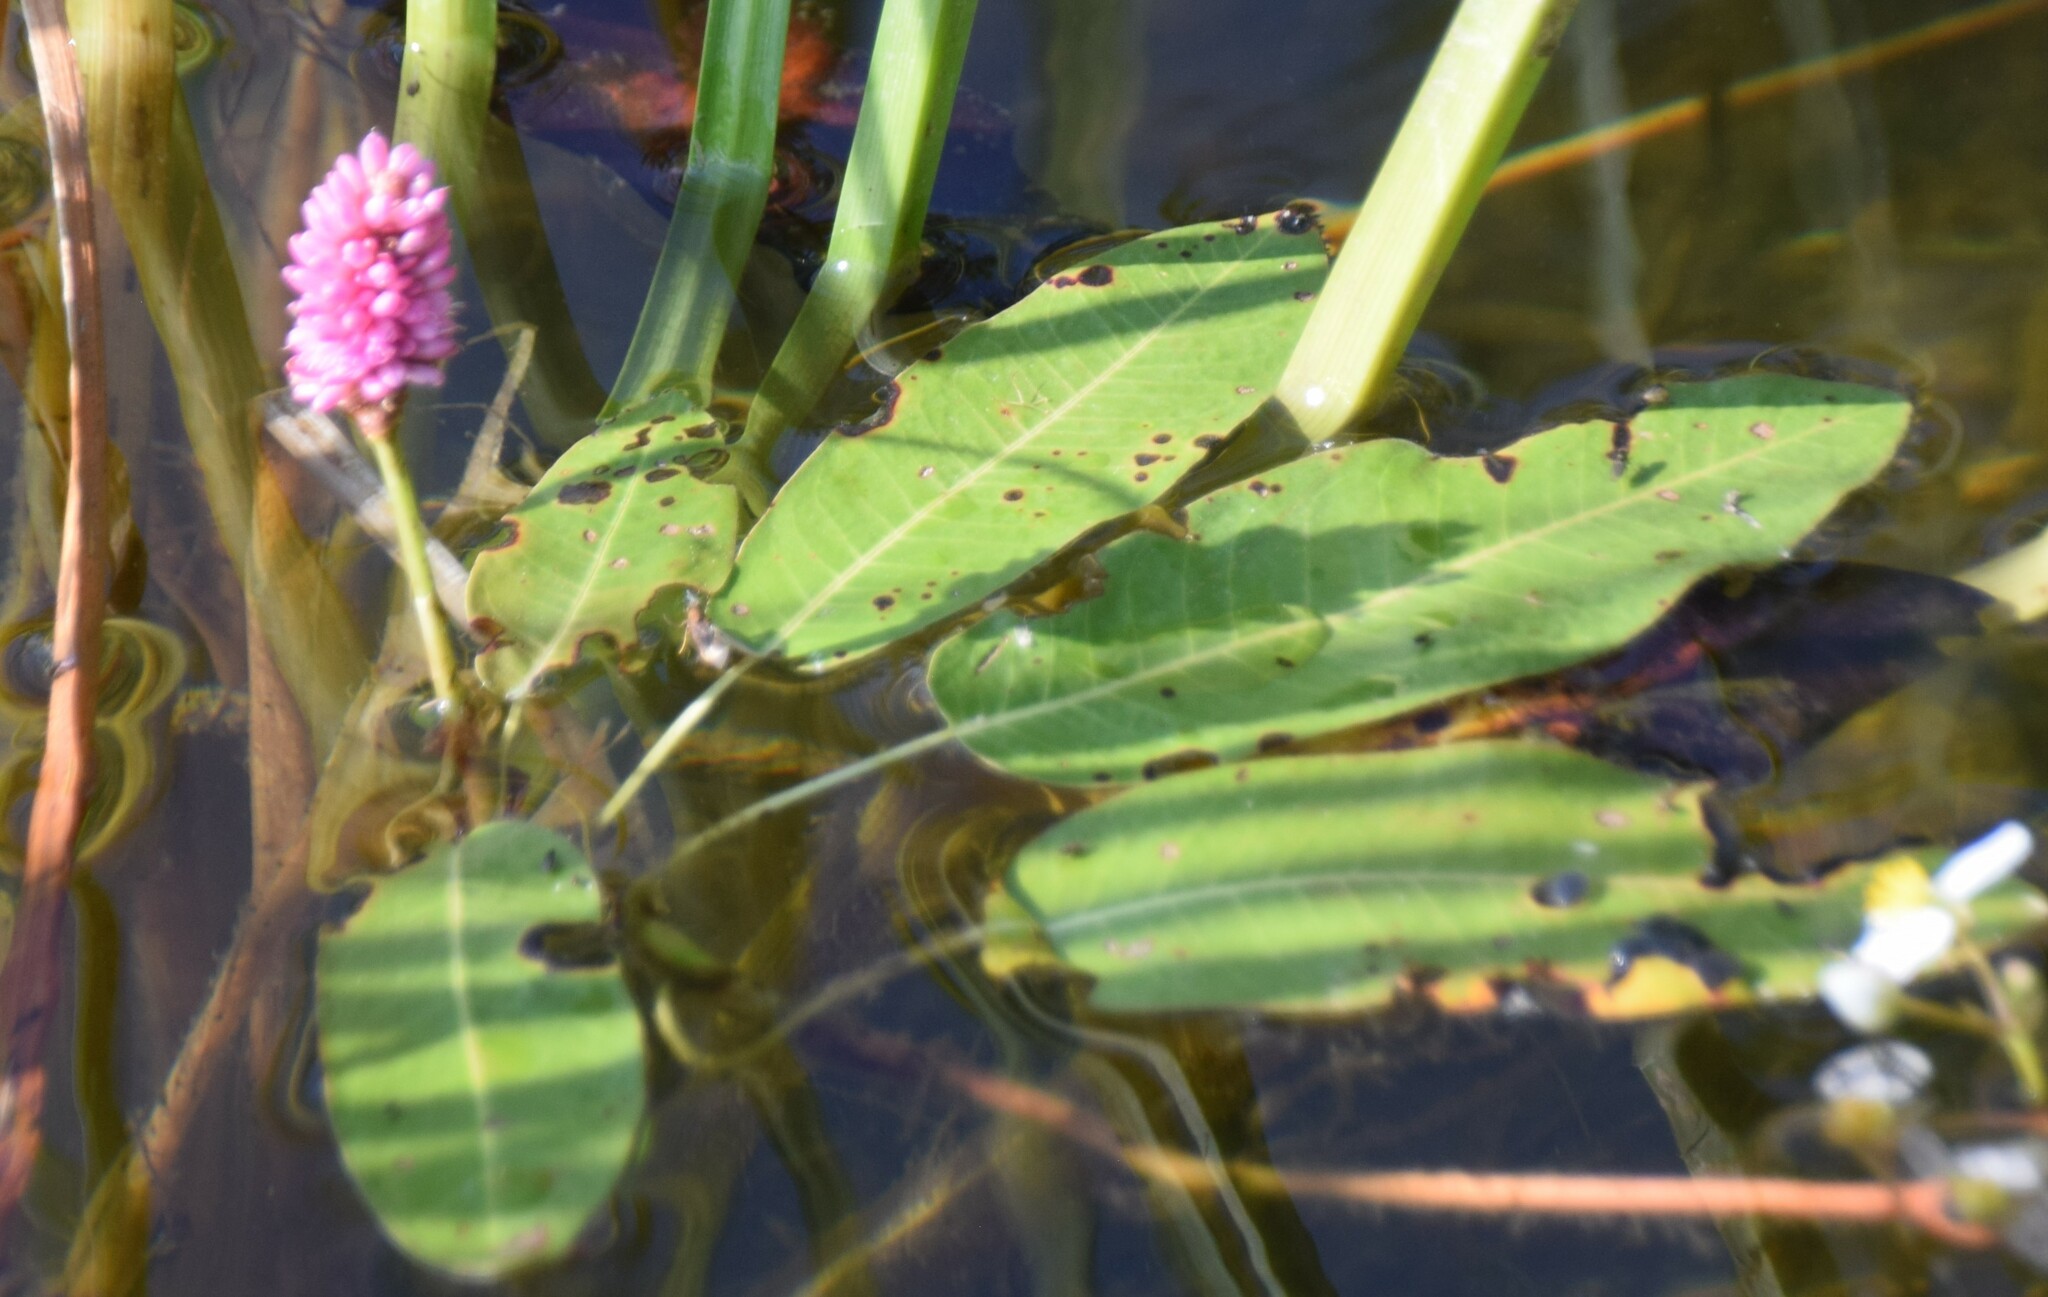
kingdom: Plantae
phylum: Tracheophyta
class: Magnoliopsida
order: Caryophyllales
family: Polygonaceae
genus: Persicaria
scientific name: Persicaria amphibia
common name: Amphibious bistort
